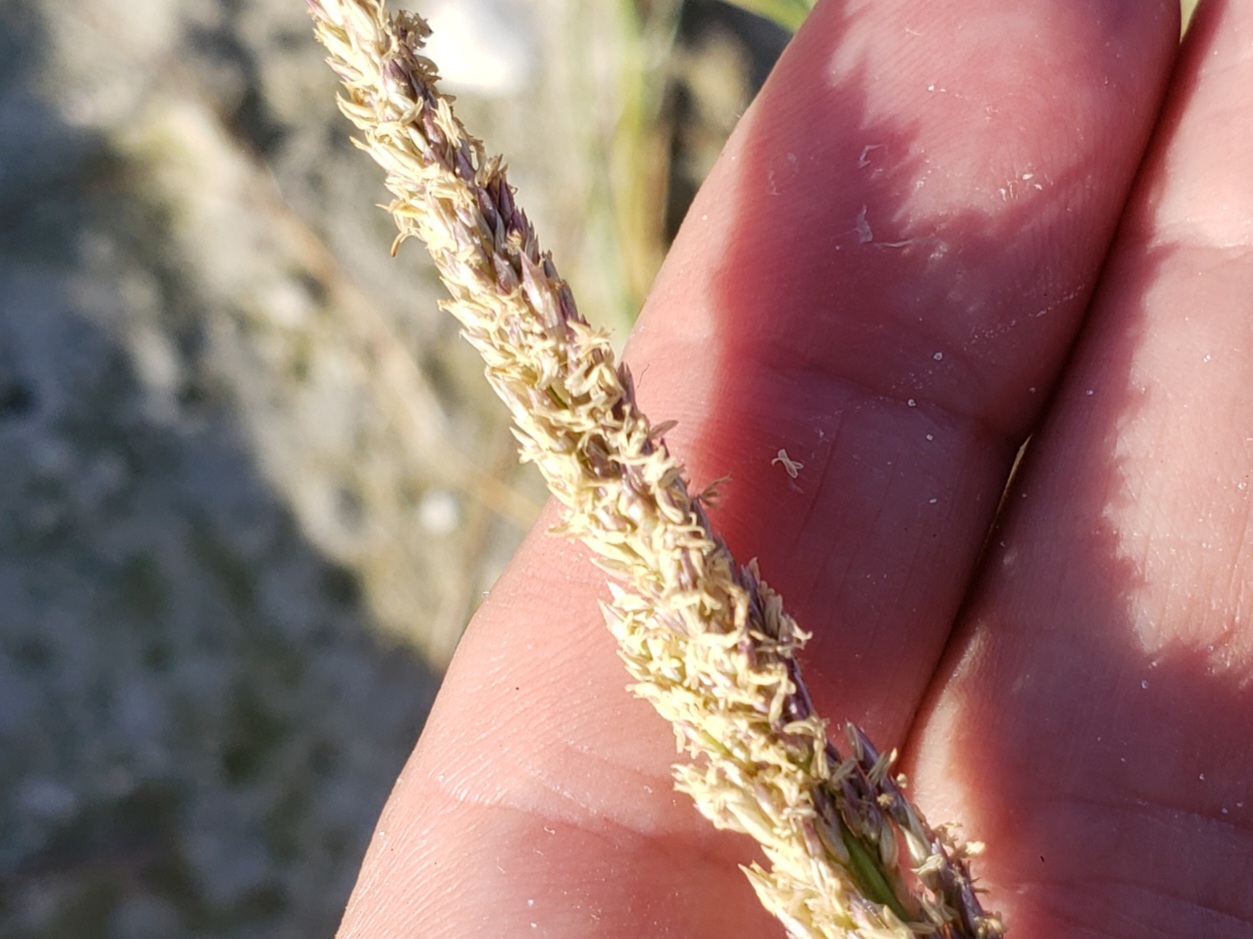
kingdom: Plantae
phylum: Tracheophyta
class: Liliopsida
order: Poales
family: Poaceae
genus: Sporobolus
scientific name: Sporobolus virginicus
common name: Beach dropseed
